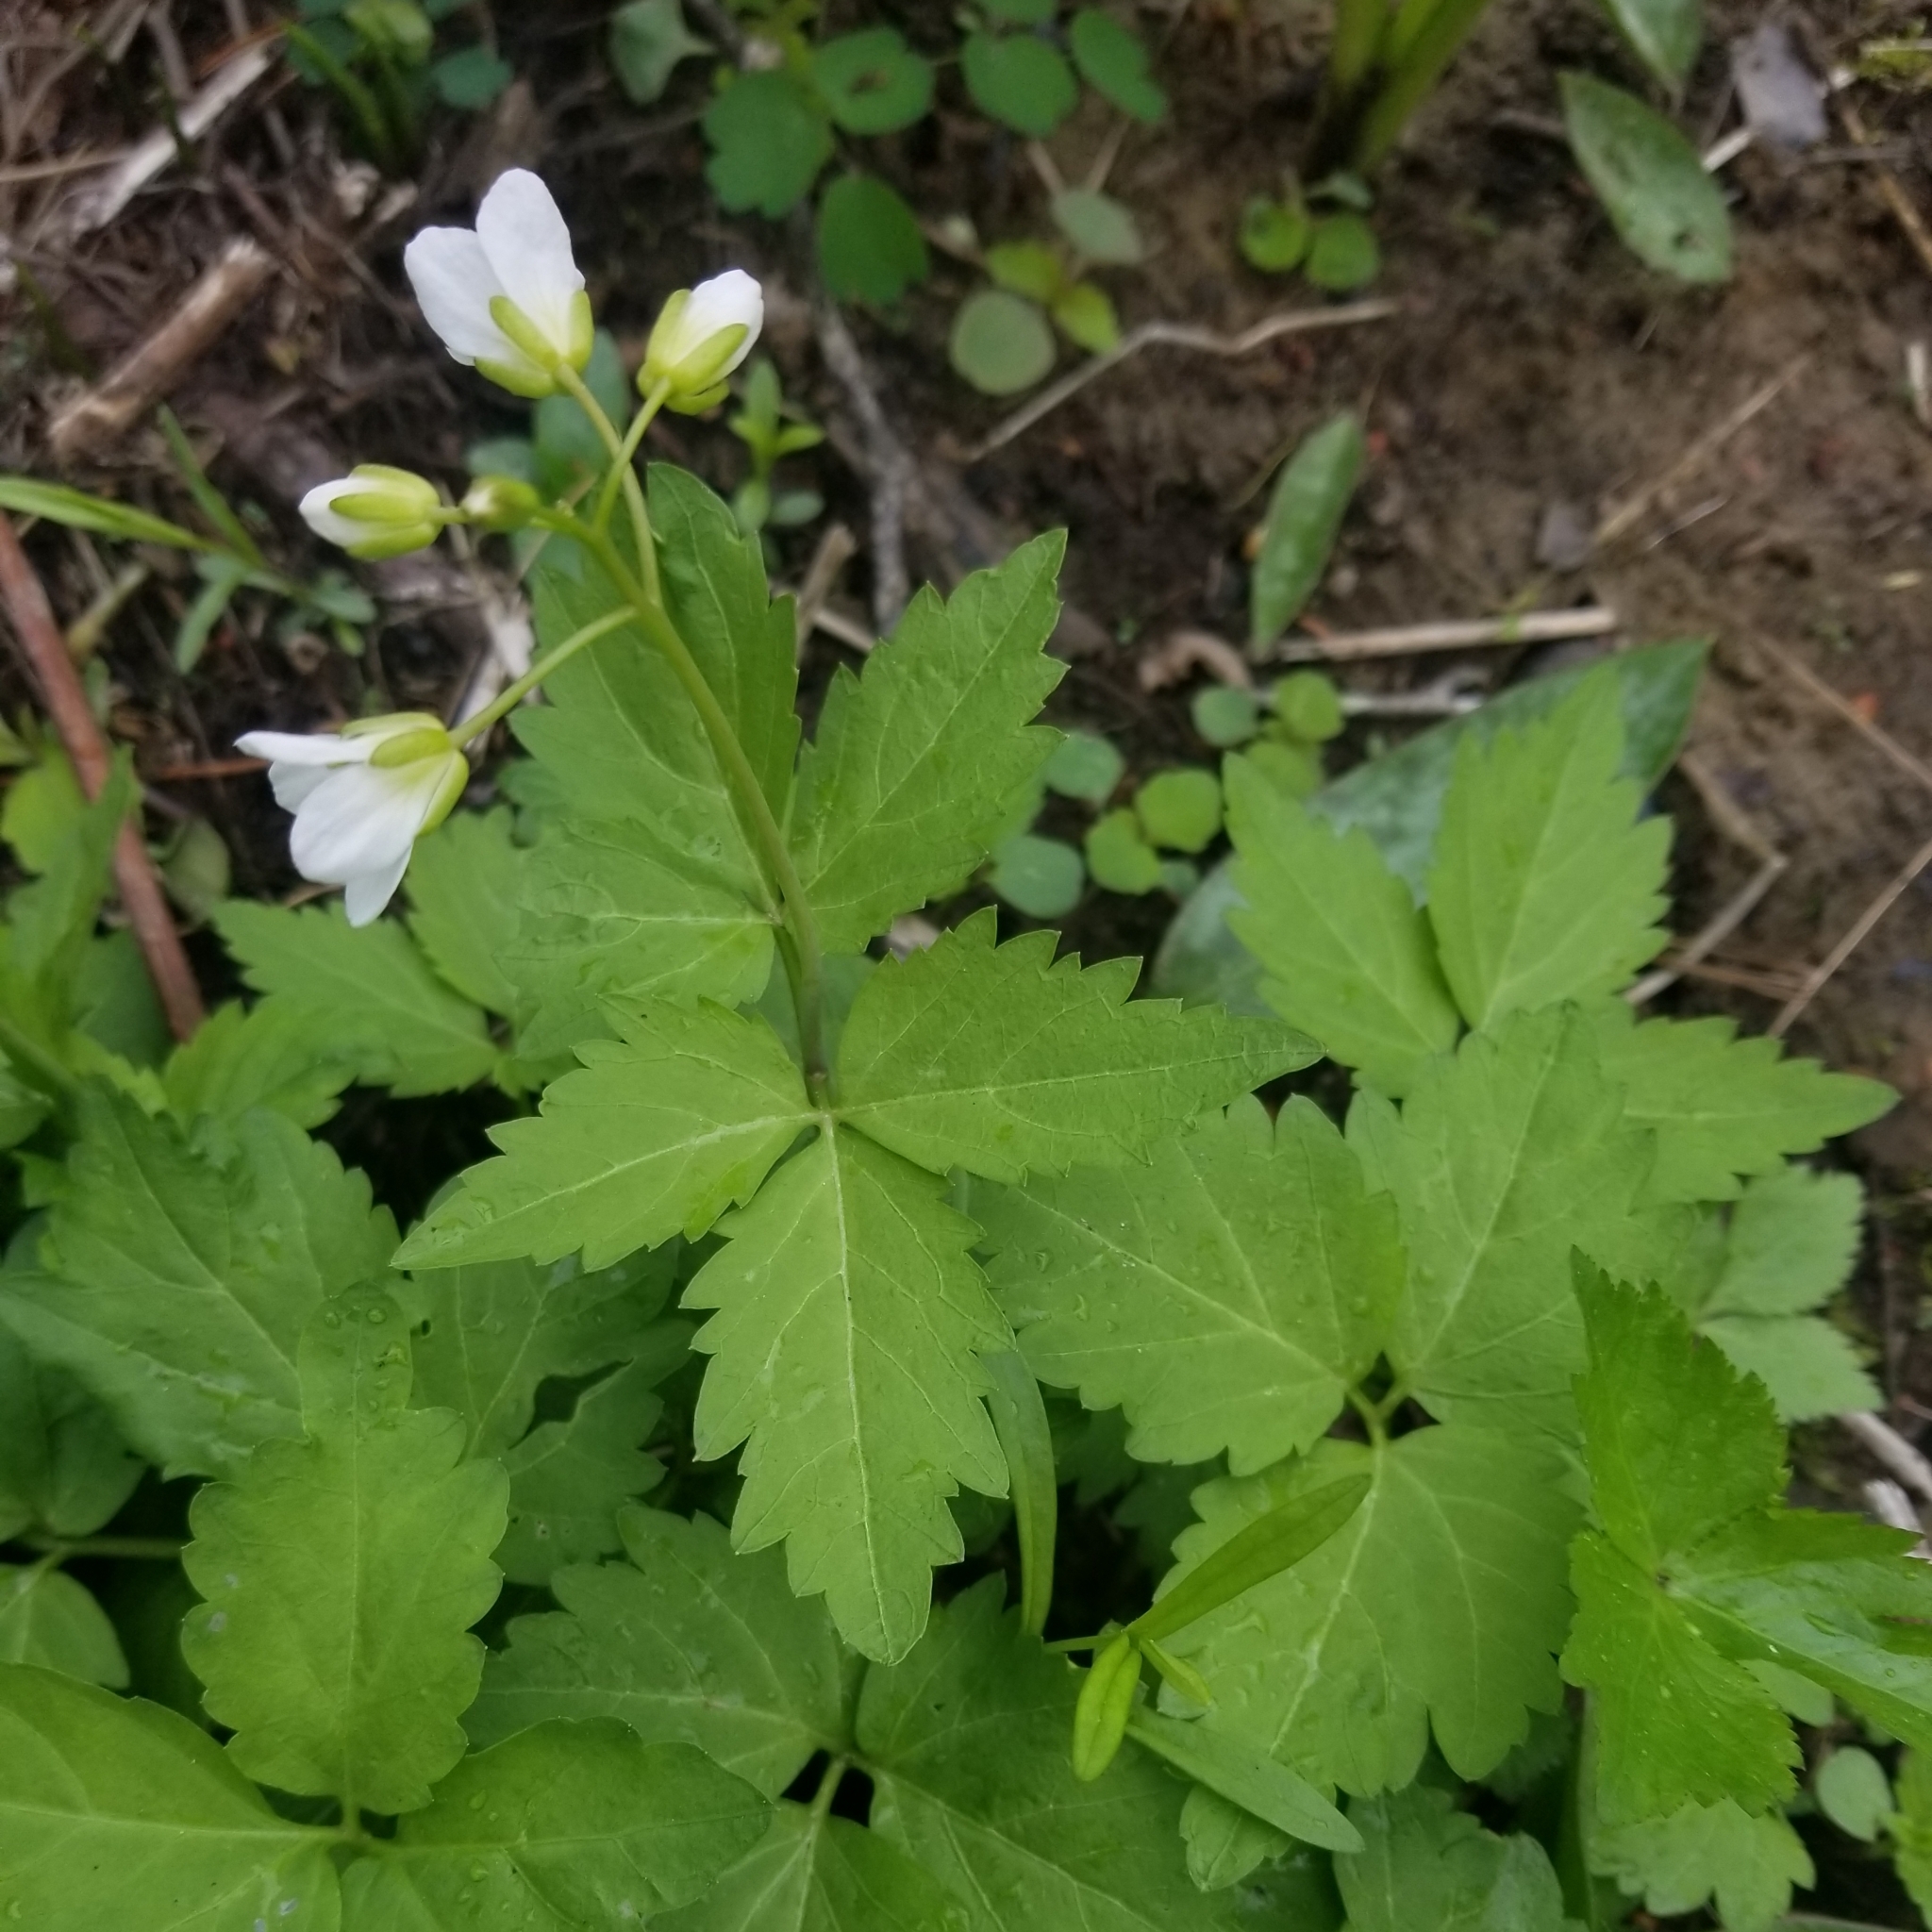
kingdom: Plantae
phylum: Tracheophyta
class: Magnoliopsida
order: Brassicales
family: Brassicaceae
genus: Cardamine
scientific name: Cardamine diphylla
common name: Broad-leaved toothwort
